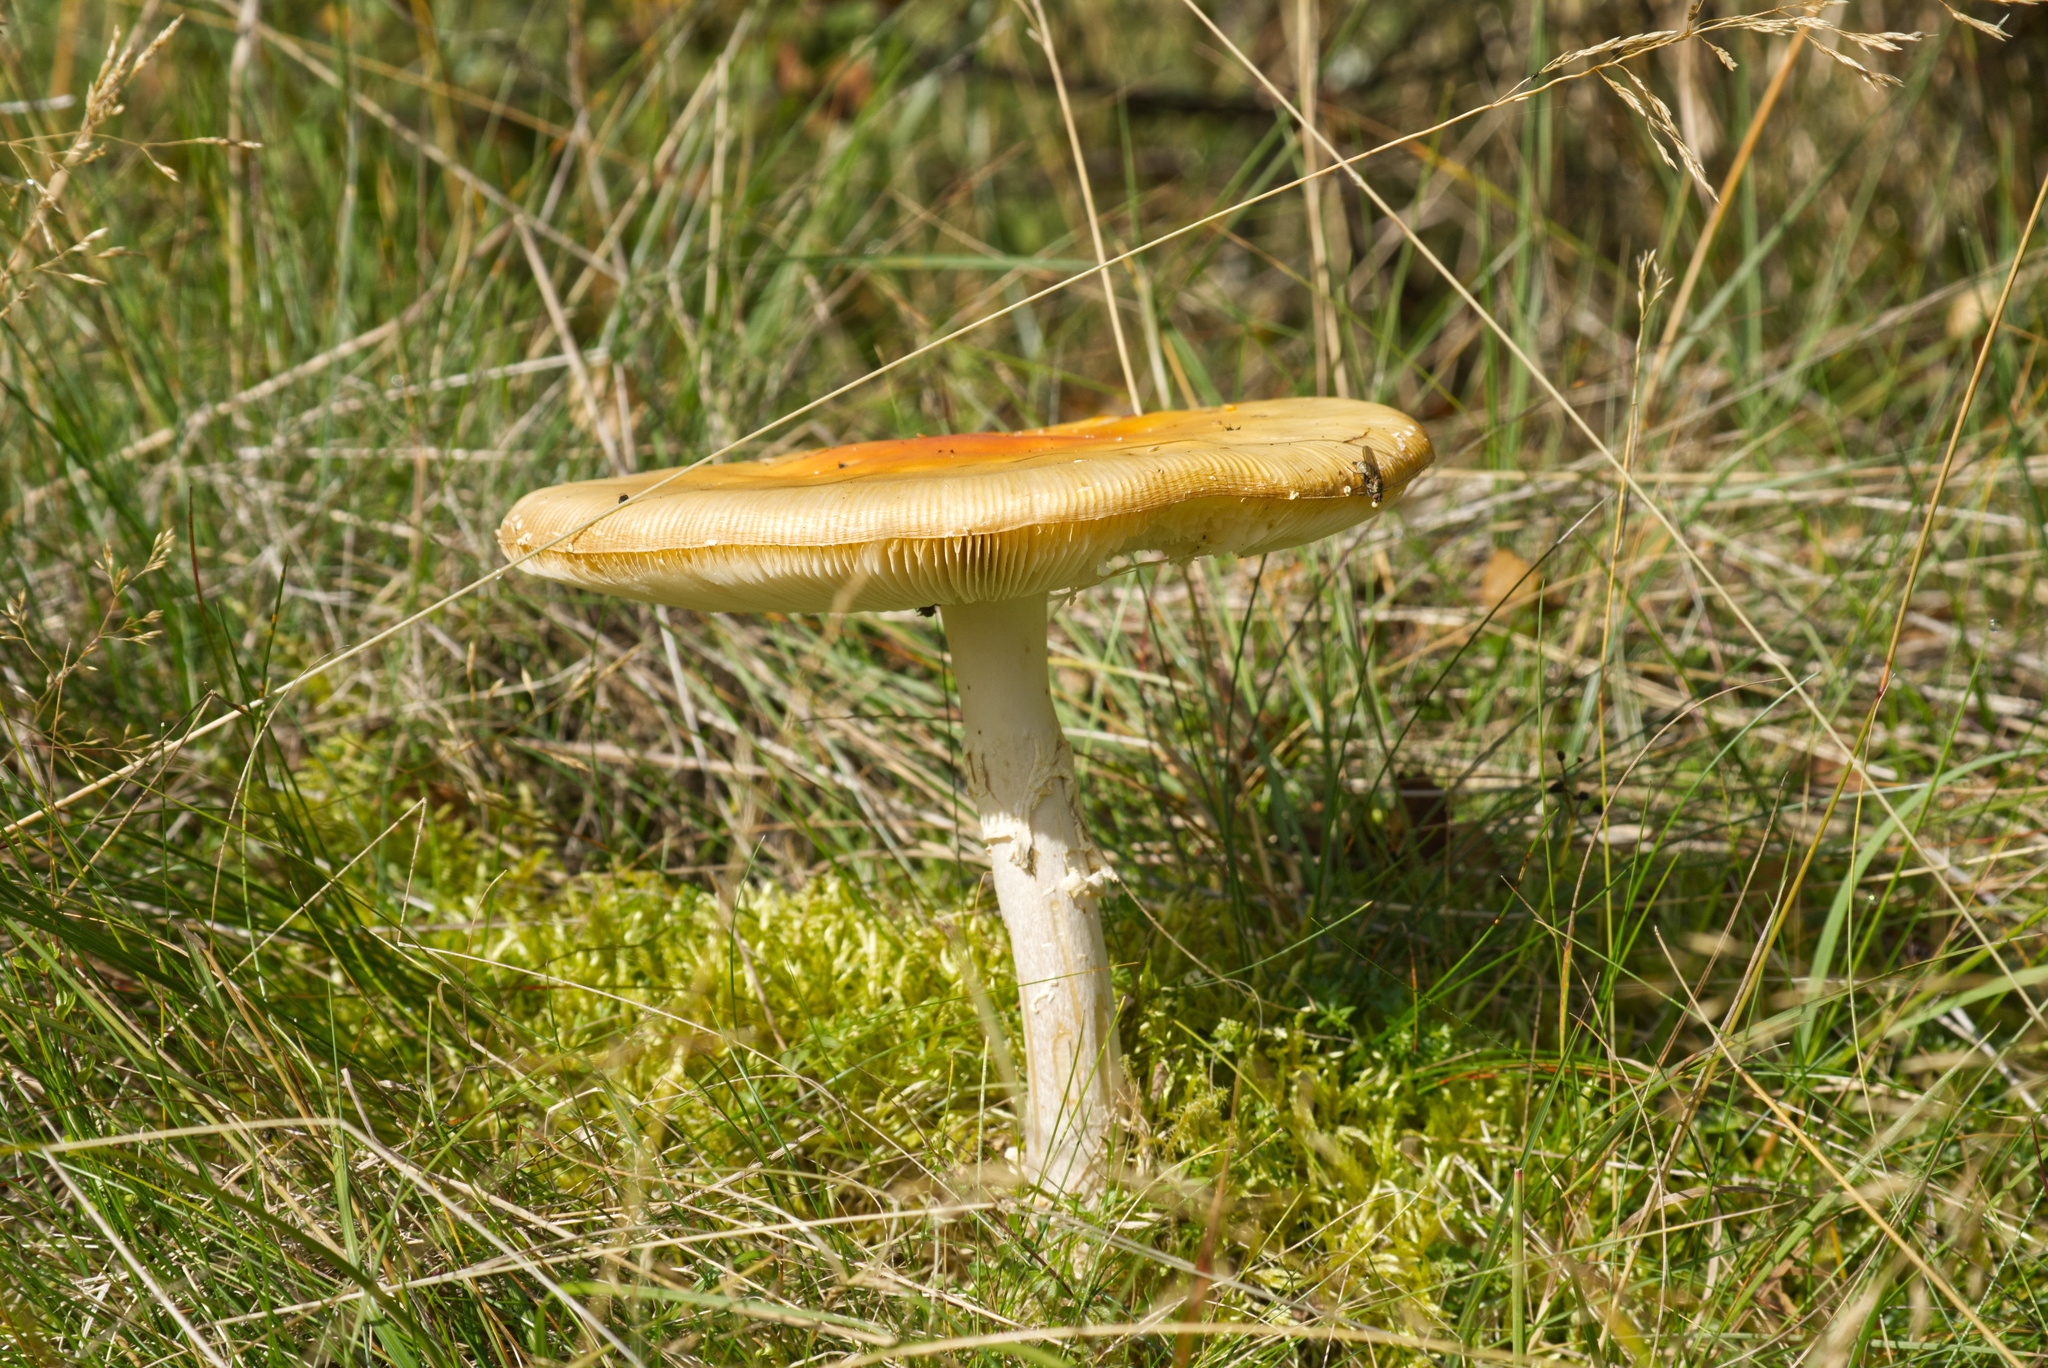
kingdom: Fungi
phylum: Basidiomycota
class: Agaricomycetes
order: Agaricales
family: Amanitaceae
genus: Amanita
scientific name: Amanita muscaria
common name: Fly agaric
